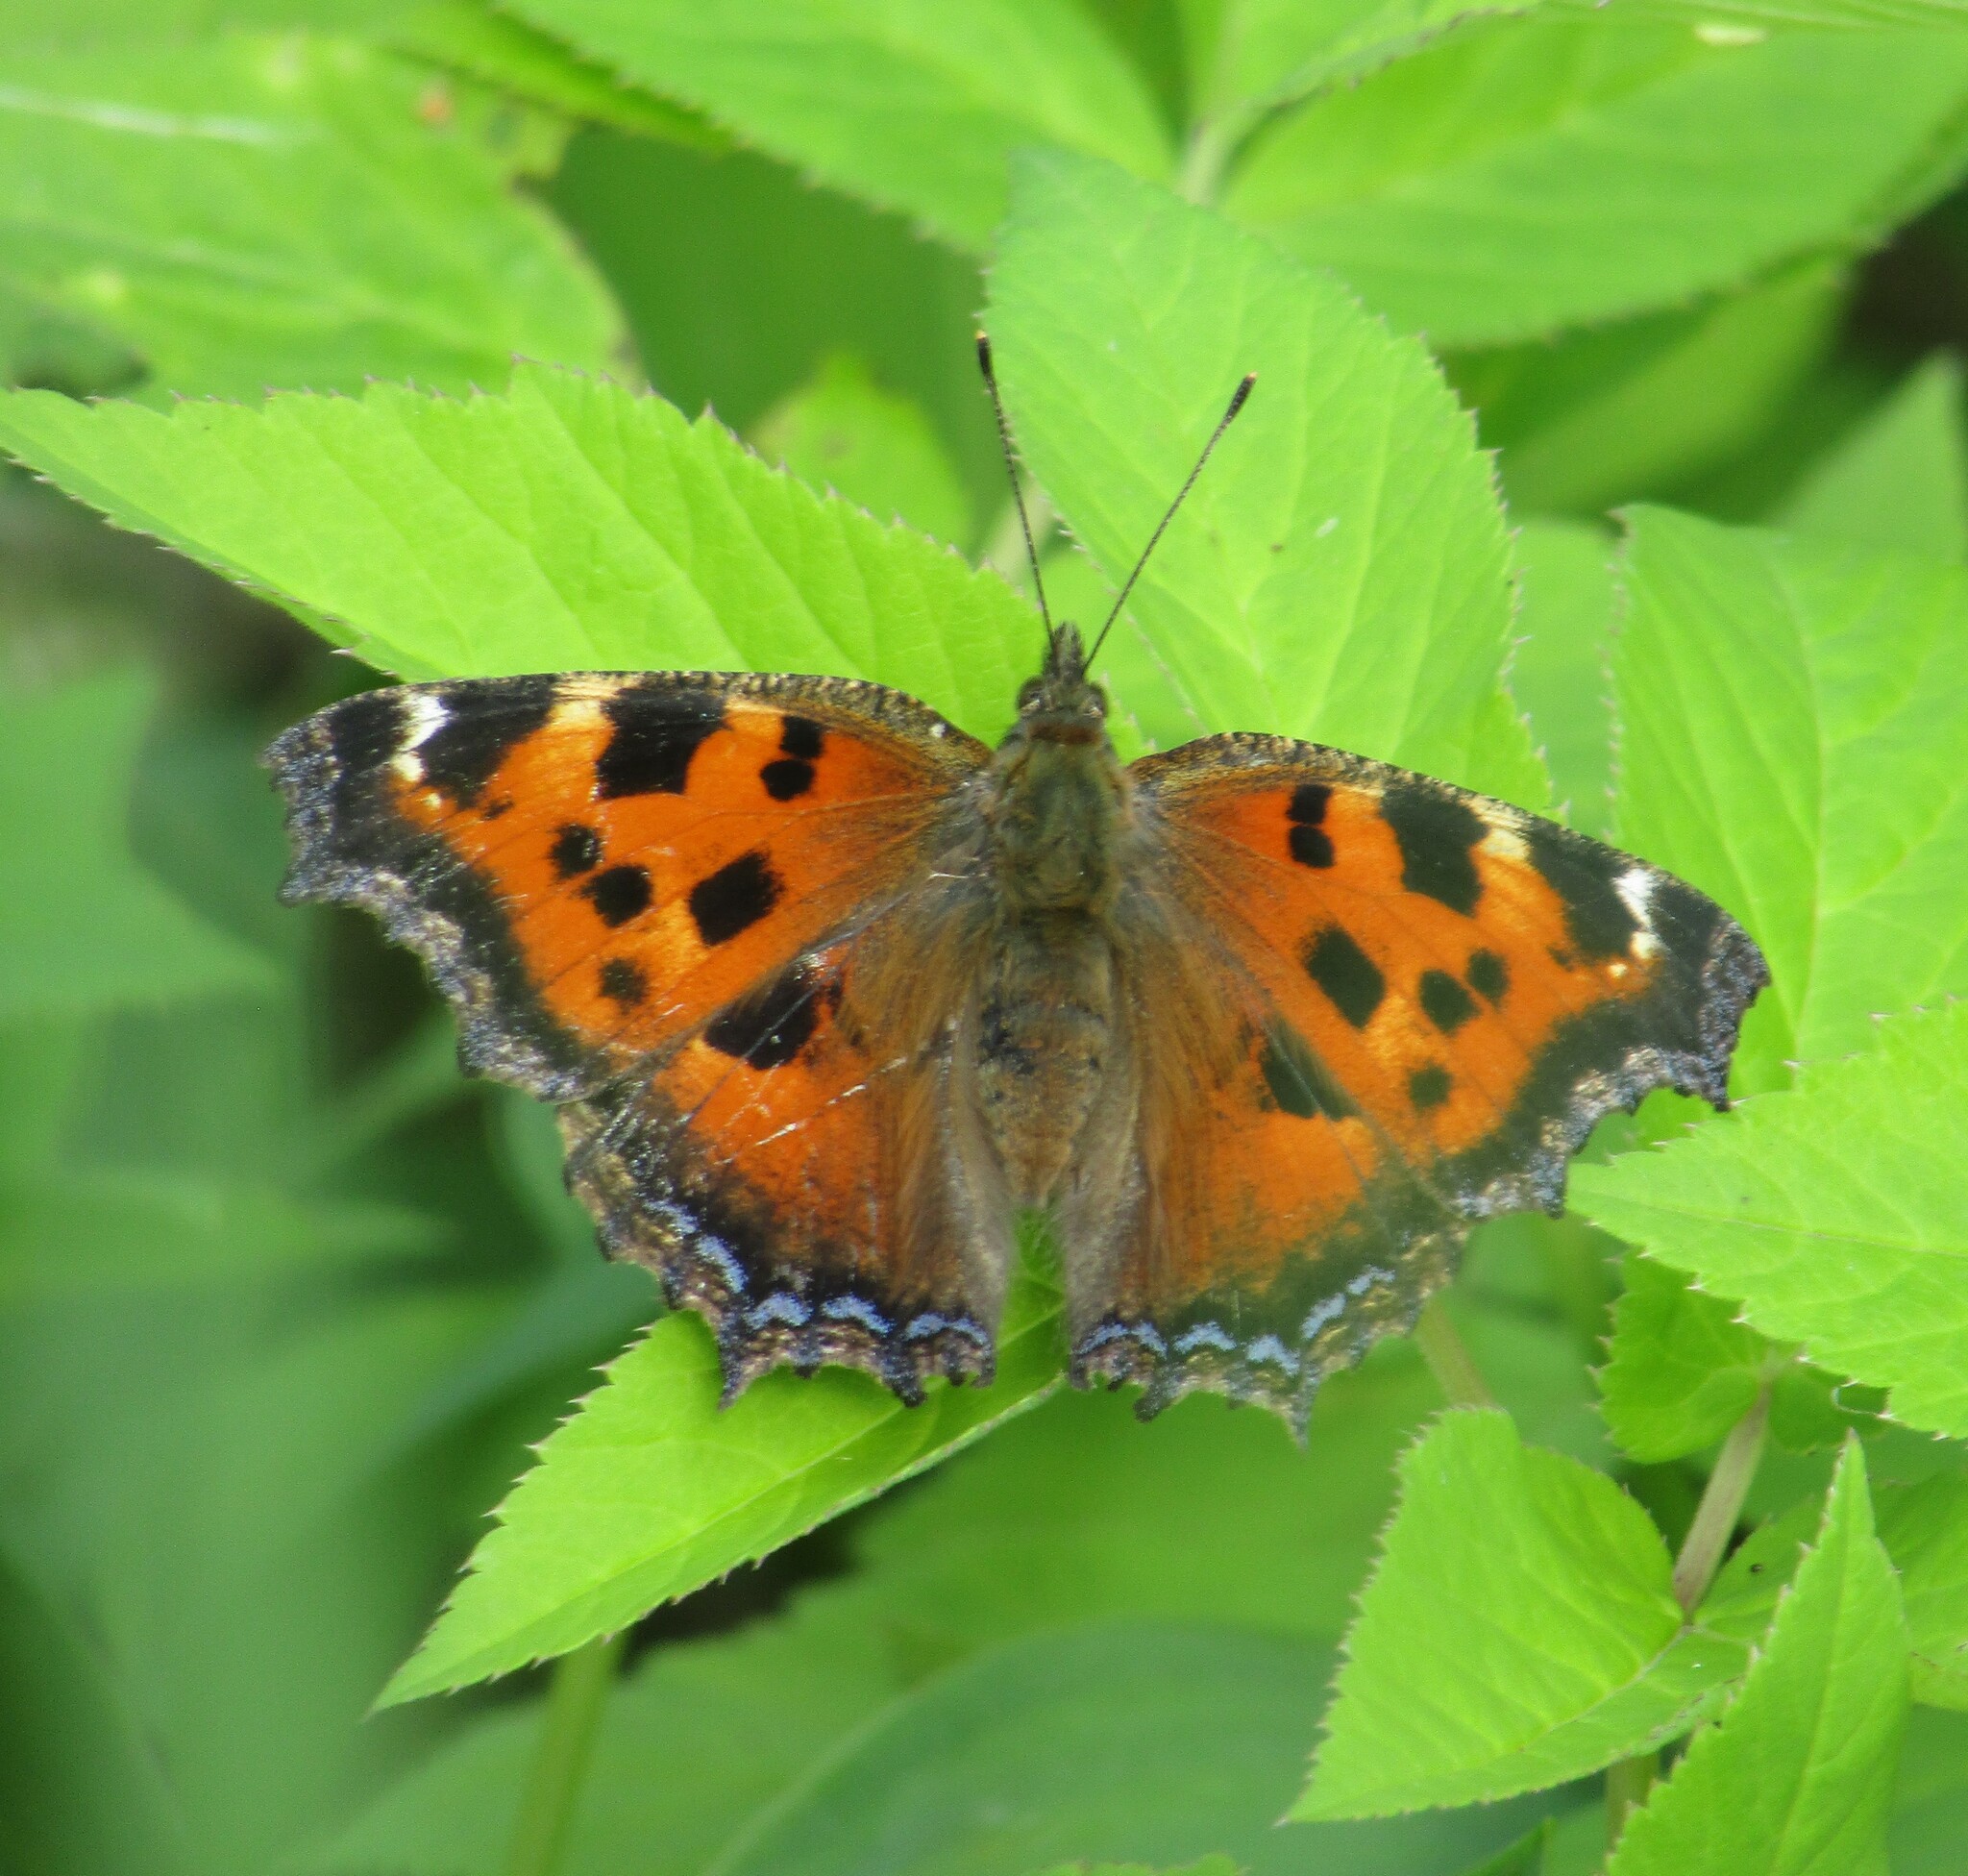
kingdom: Animalia
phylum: Arthropoda
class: Insecta
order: Lepidoptera
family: Nymphalidae
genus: Nymphalis
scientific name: Nymphalis xanthomelas
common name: Scarce tortoiseshell
